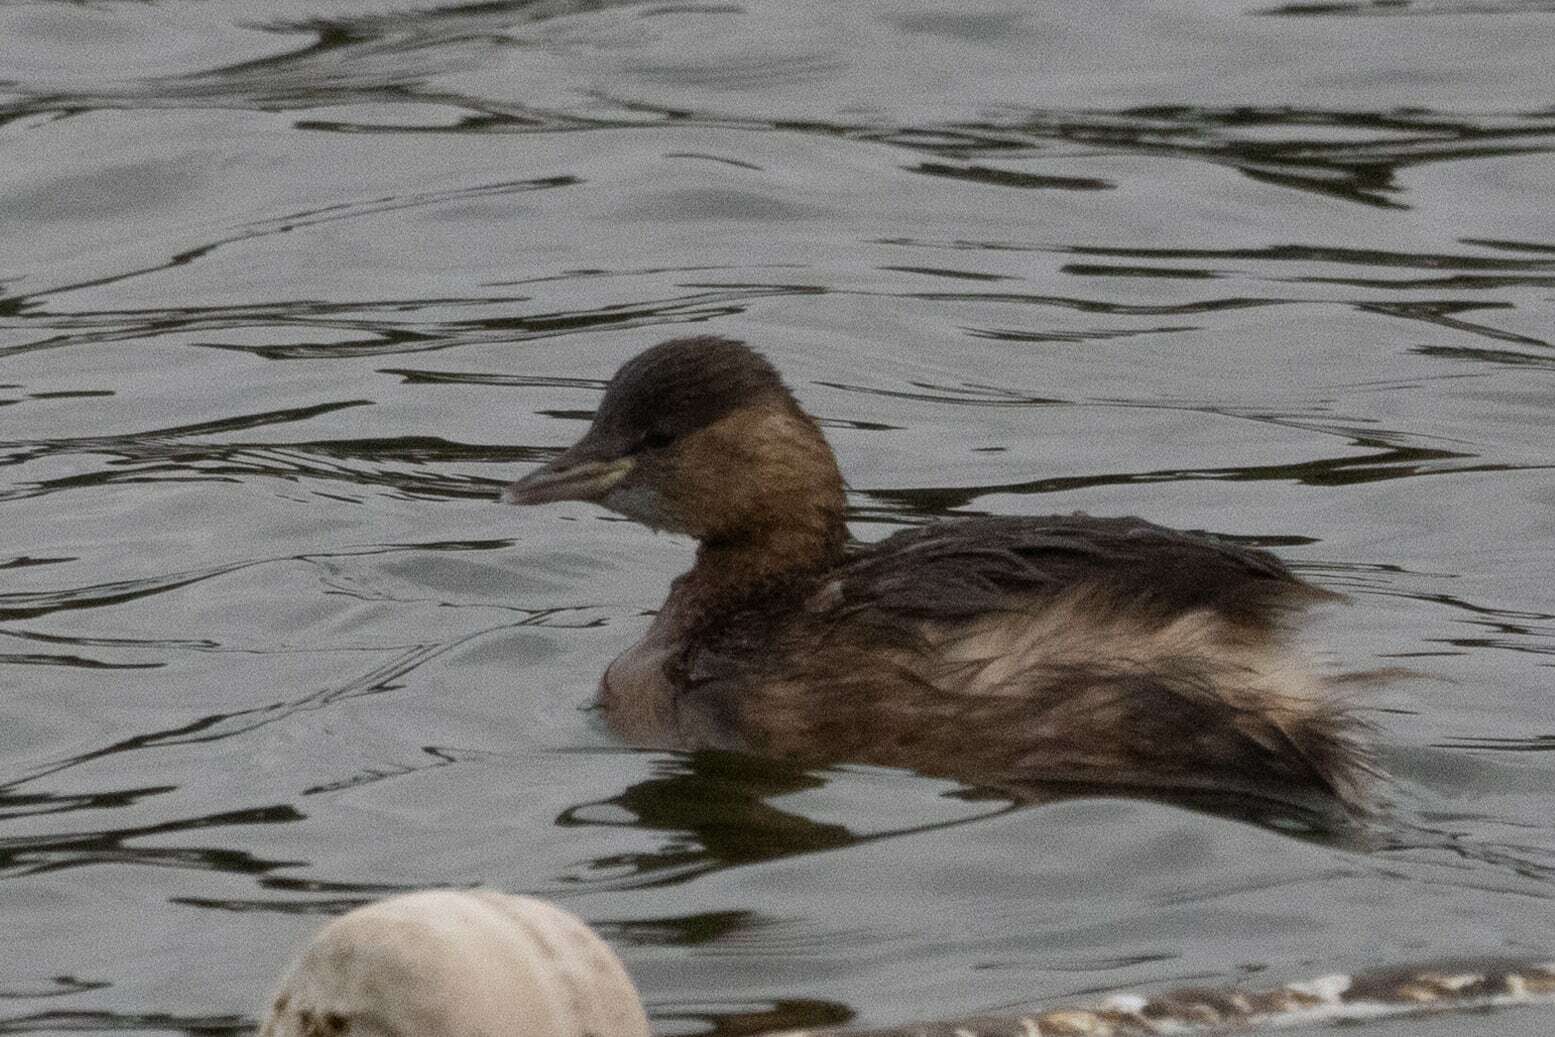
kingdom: Animalia
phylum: Chordata
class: Aves
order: Podicipediformes
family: Podicipedidae
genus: Tachybaptus
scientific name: Tachybaptus ruficollis
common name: Little grebe
